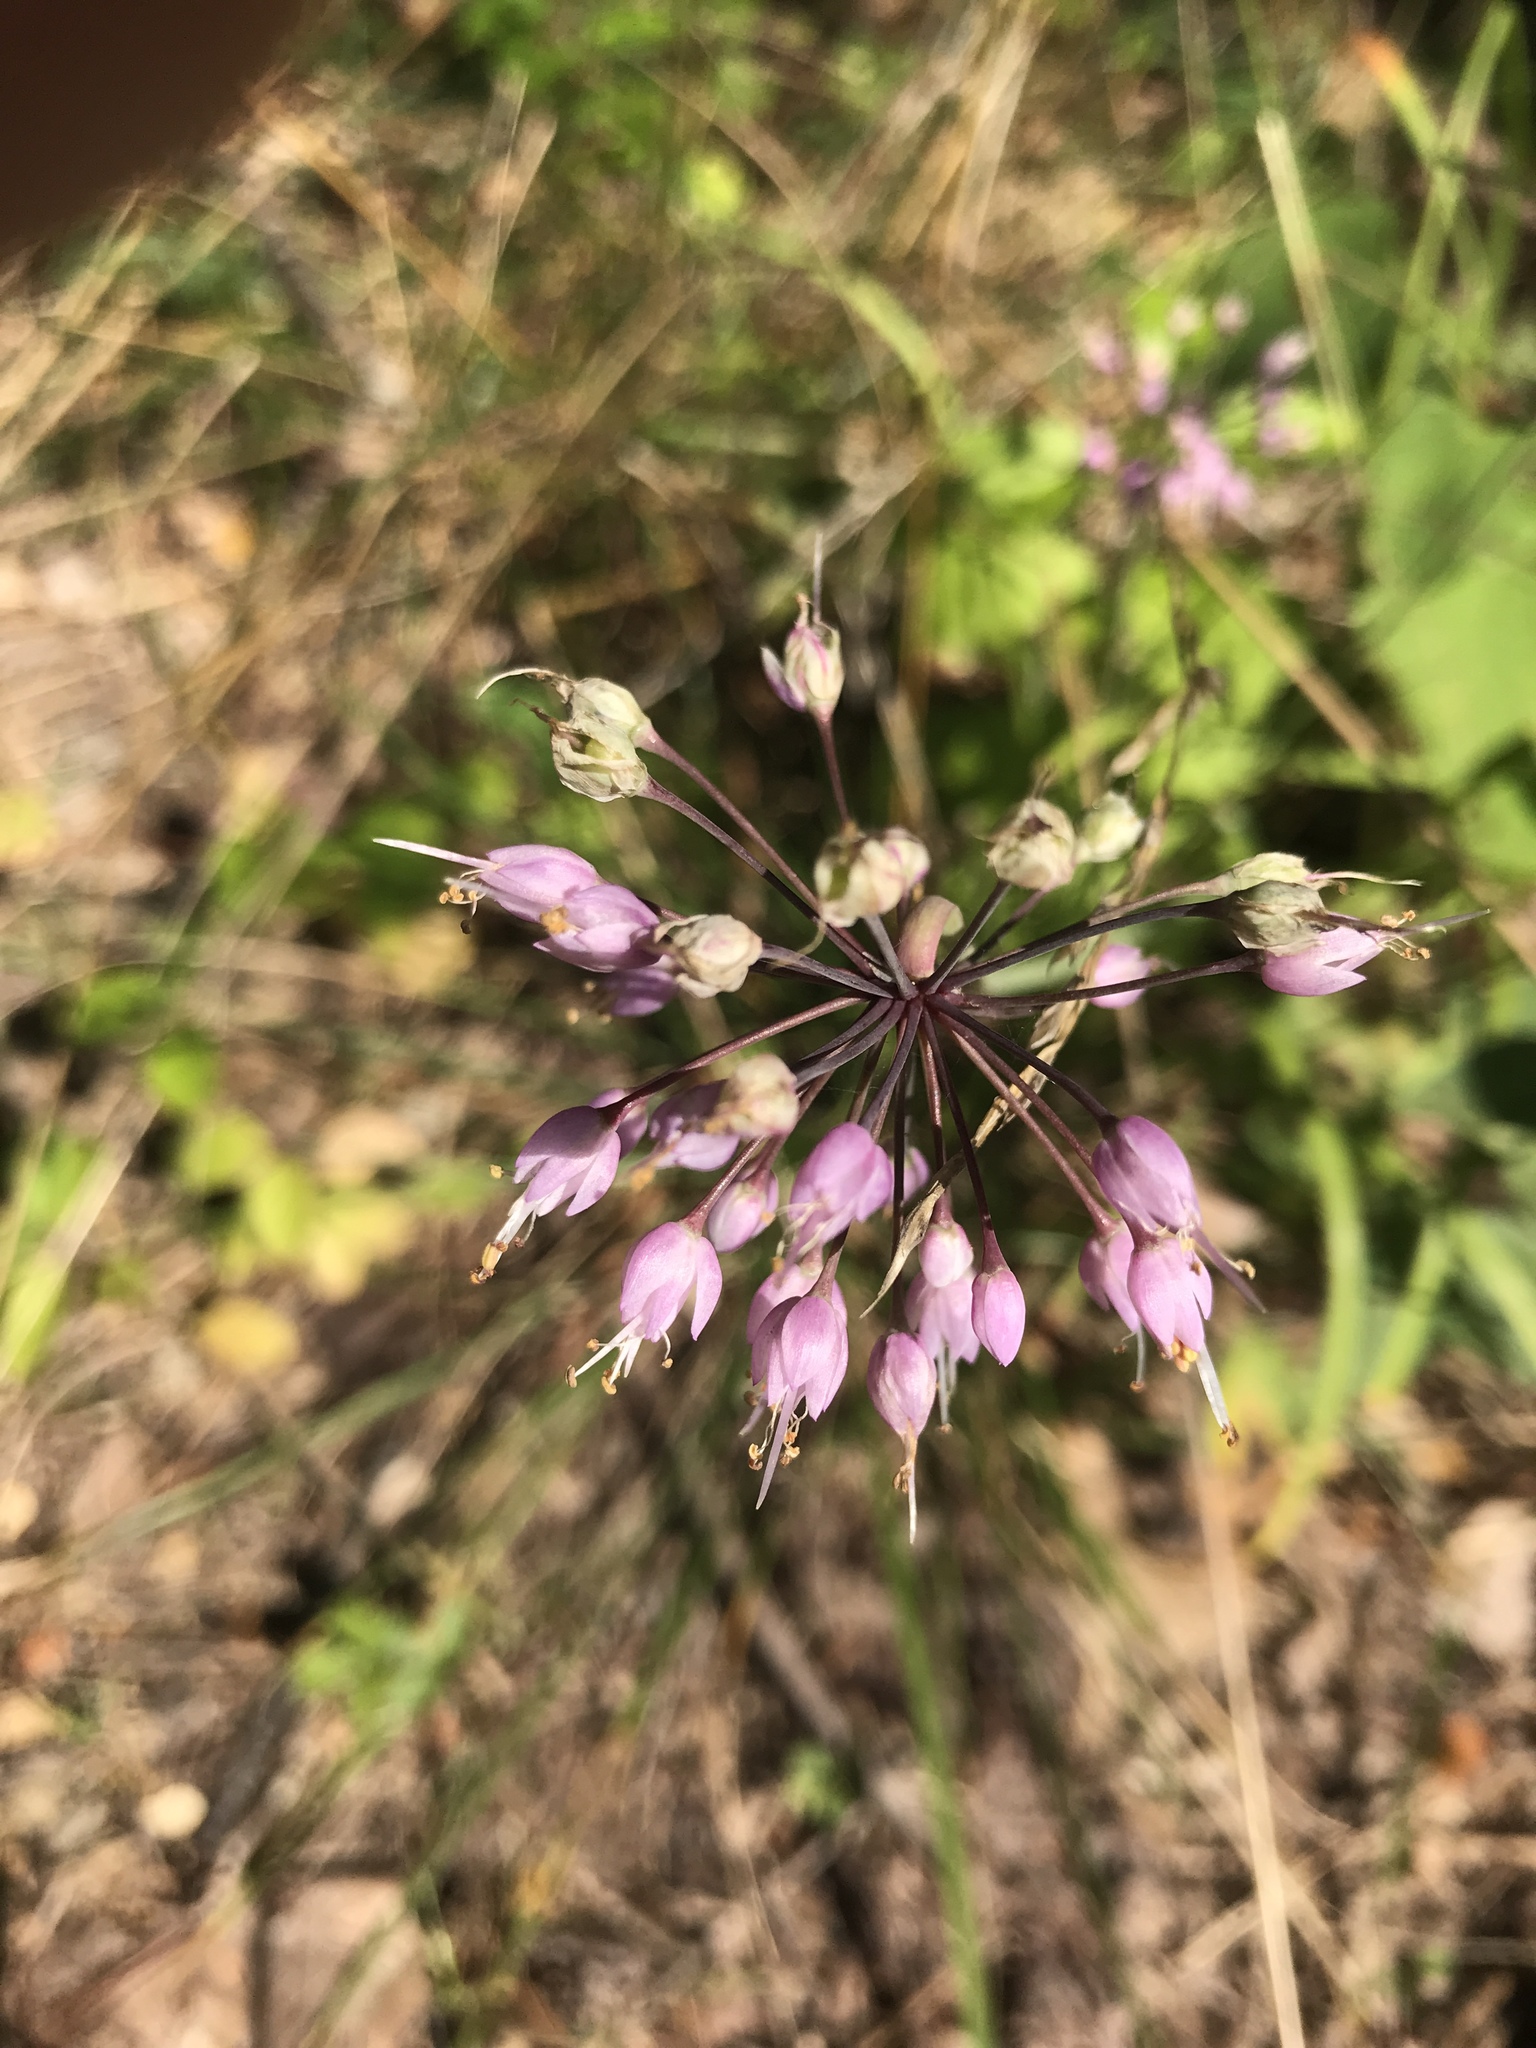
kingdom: Plantae
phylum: Tracheophyta
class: Liliopsida
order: Asparagales
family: Amaryllidaceae
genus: Allium
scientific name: Allium cernuum
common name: Nodding onion
